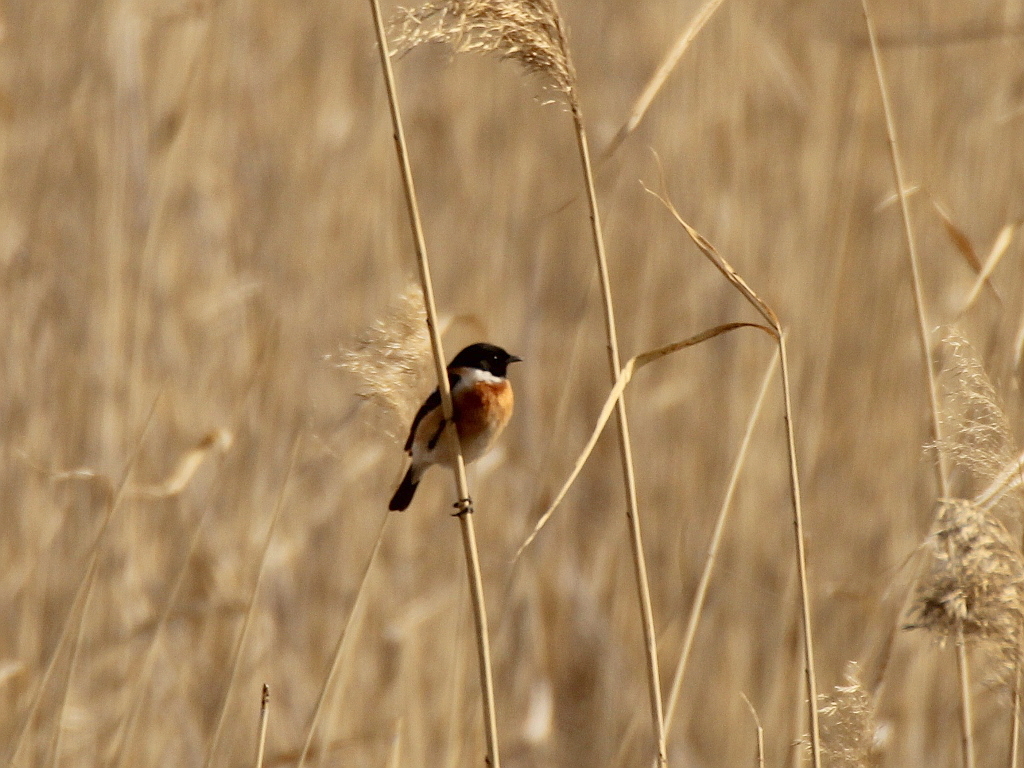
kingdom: Animalia
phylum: Chordata
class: Aves
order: Passeriformes
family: Muscicapidae
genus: Saxicola
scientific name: Saxicola maurus
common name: Siberian stonechat
